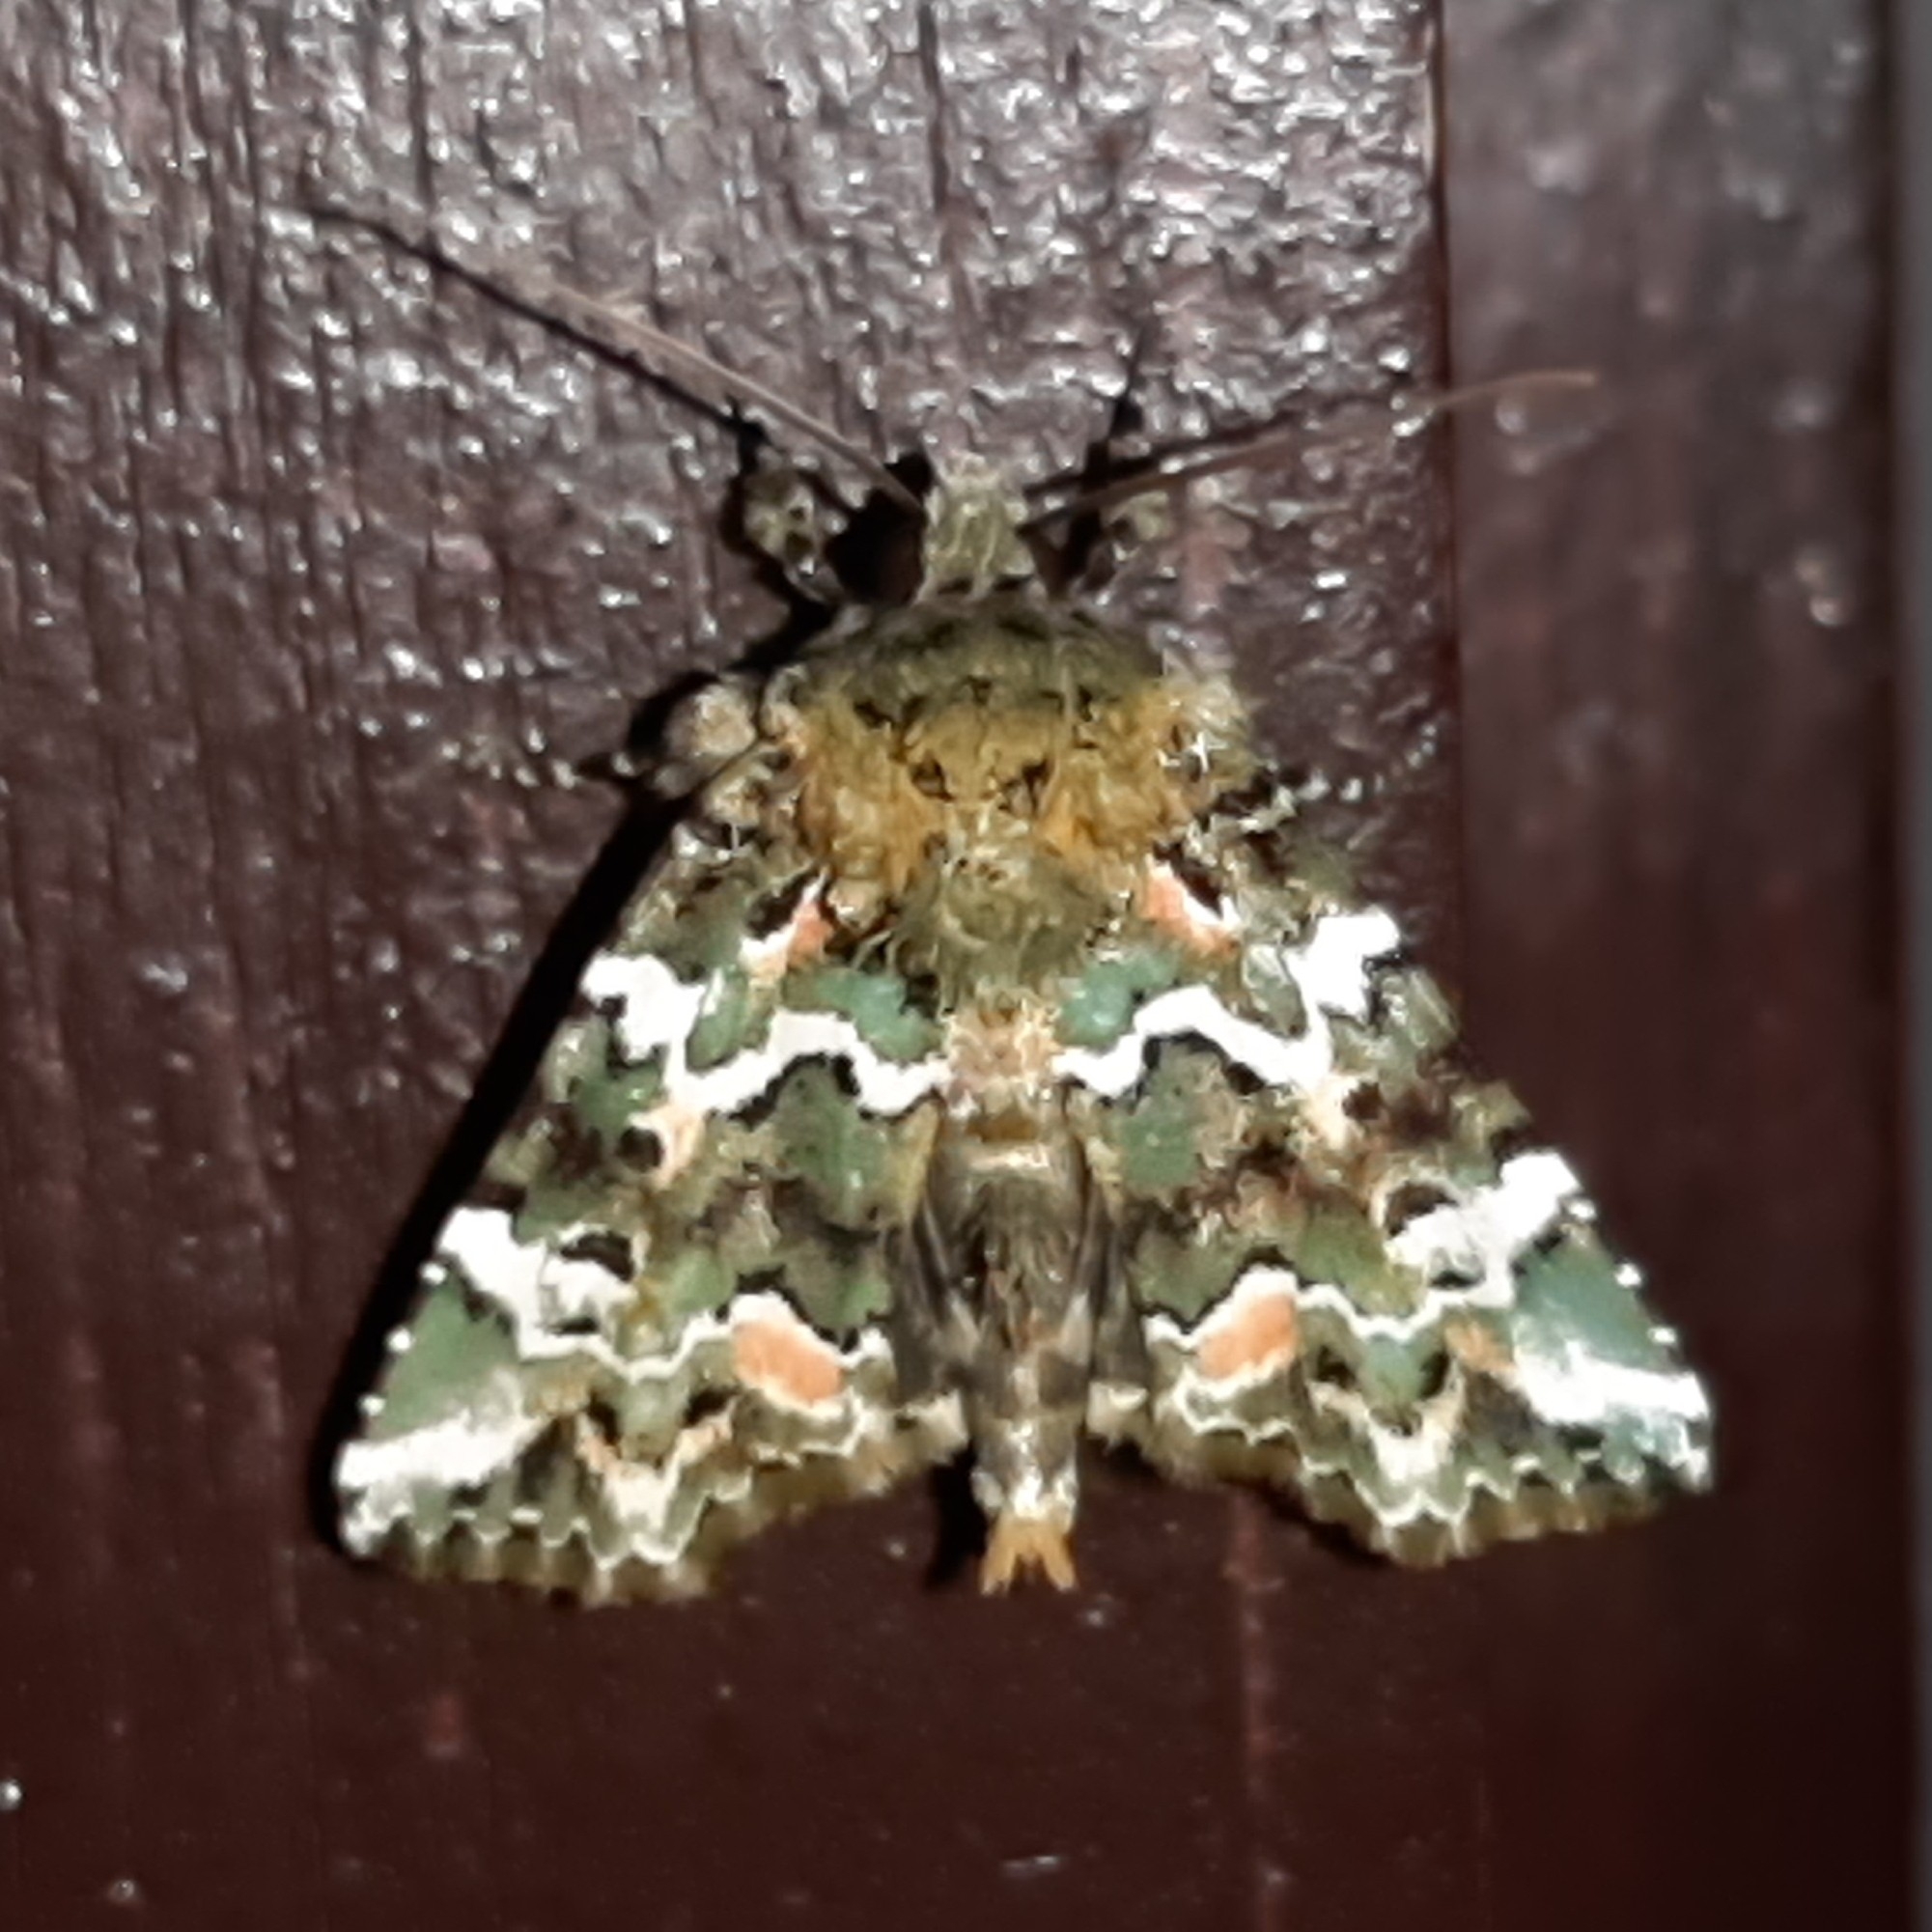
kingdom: Animalia
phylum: Arthropoda
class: Insecta
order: Lepidoptera
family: Noctuidae
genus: Chytonix
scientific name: Chytonix elegans
